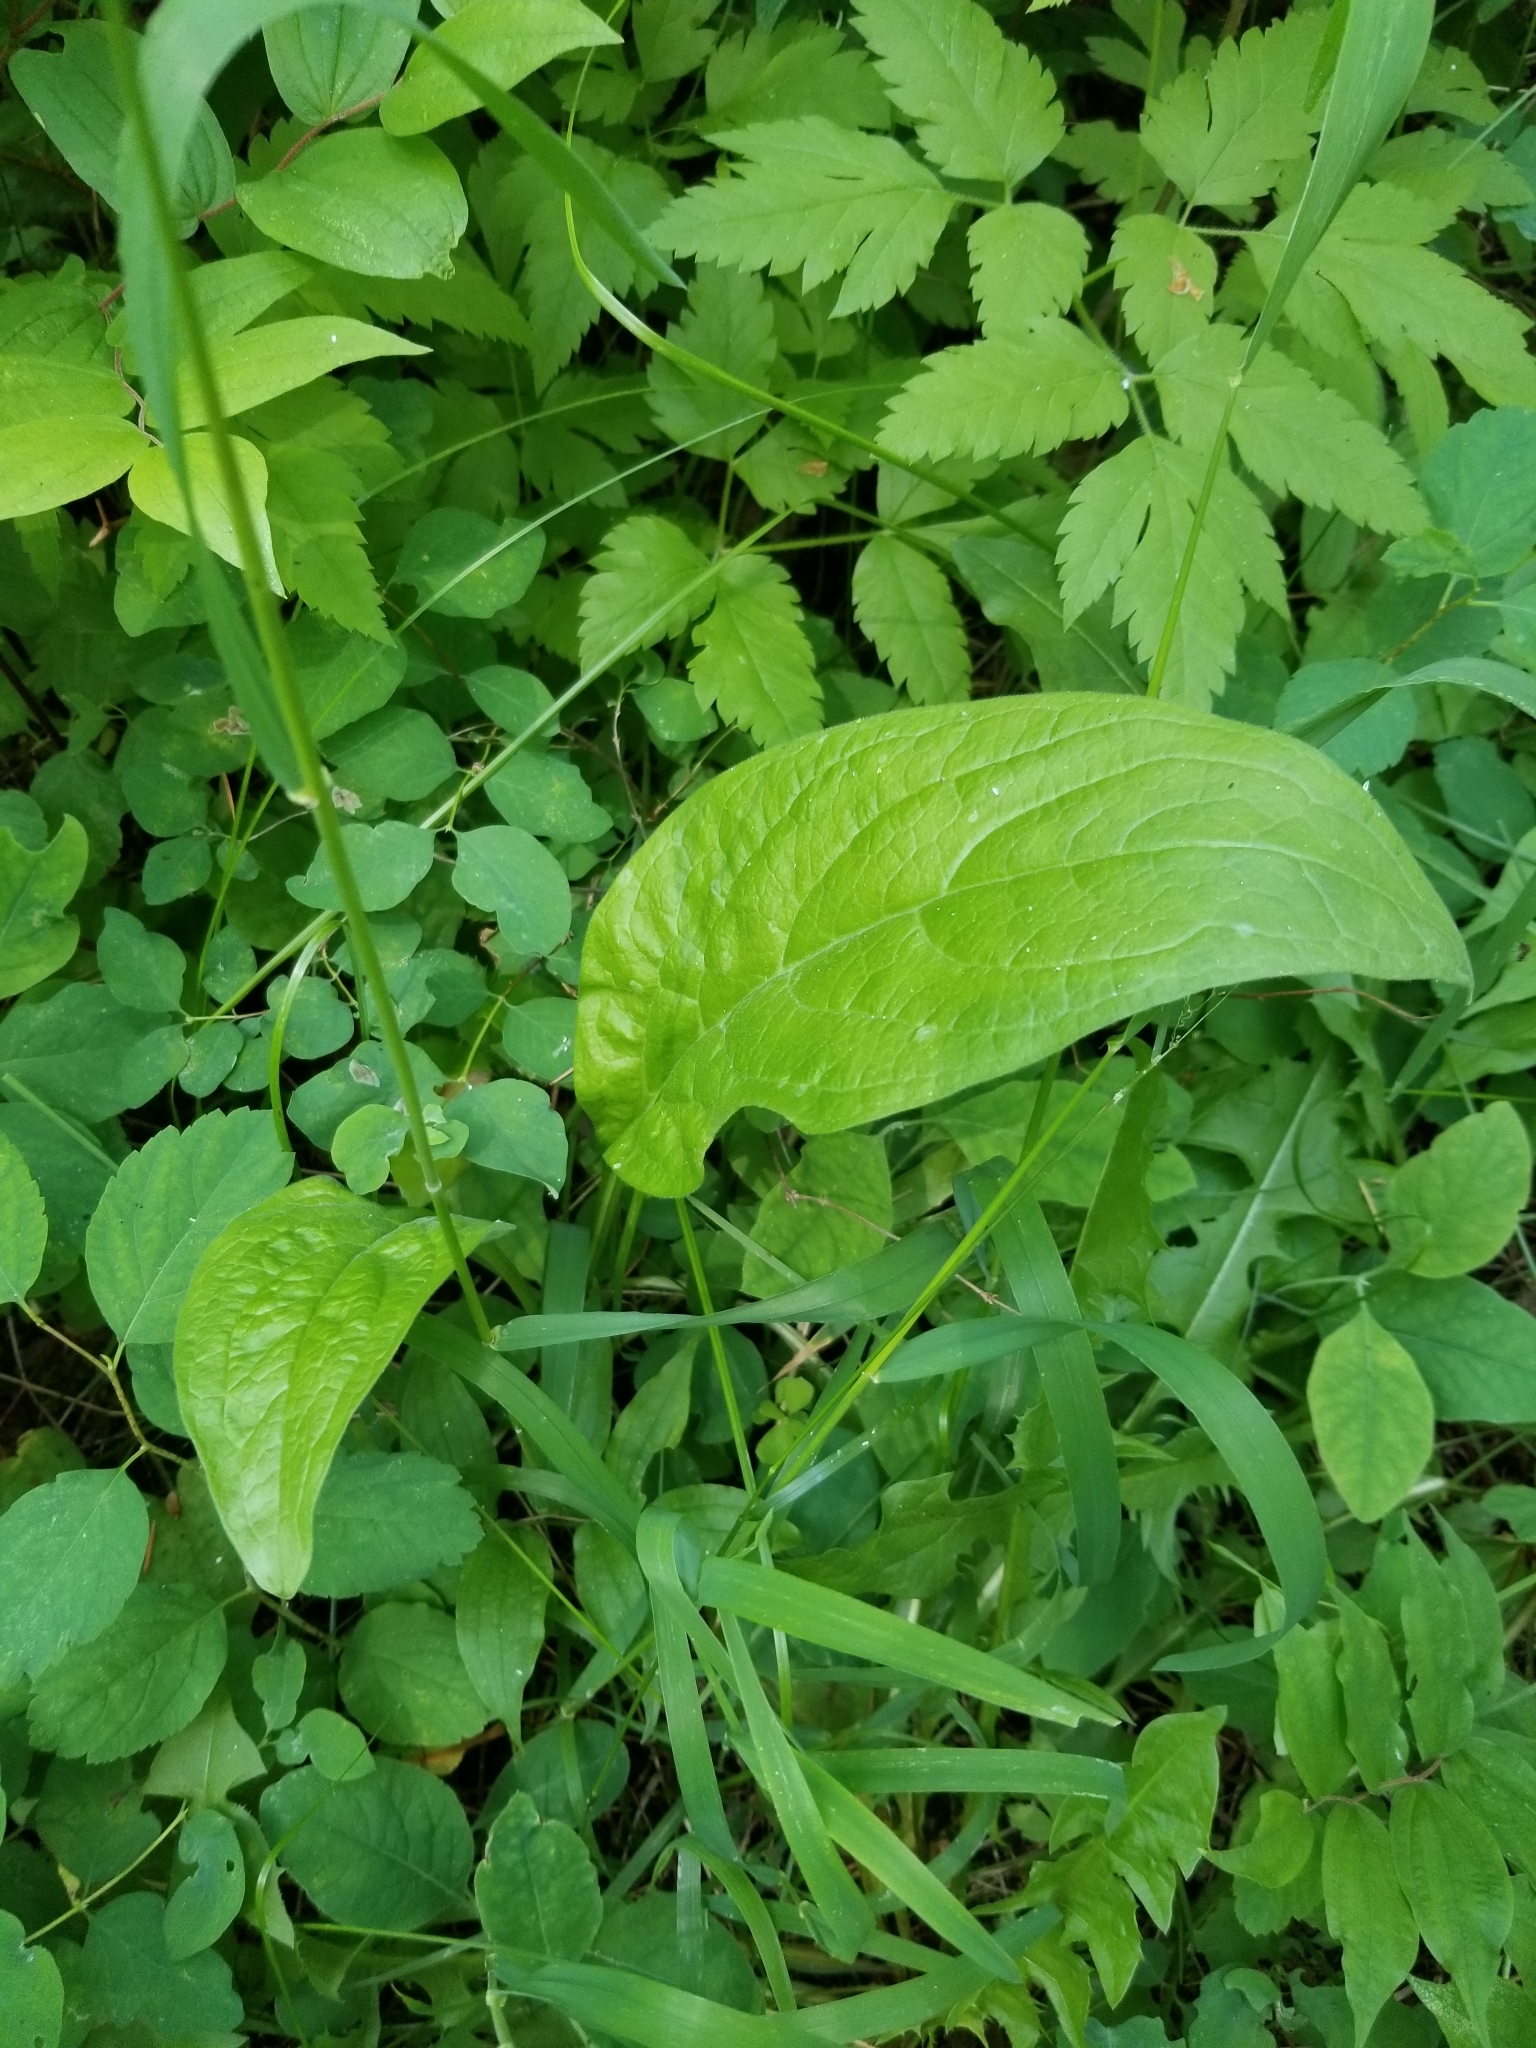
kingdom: Plantae
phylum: Tracheophyta
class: Magnoliopsida
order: Boraginales
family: Boraginaceae
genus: Cynoglossum
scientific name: Cynoglossum officinale
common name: Hound's-tongue
